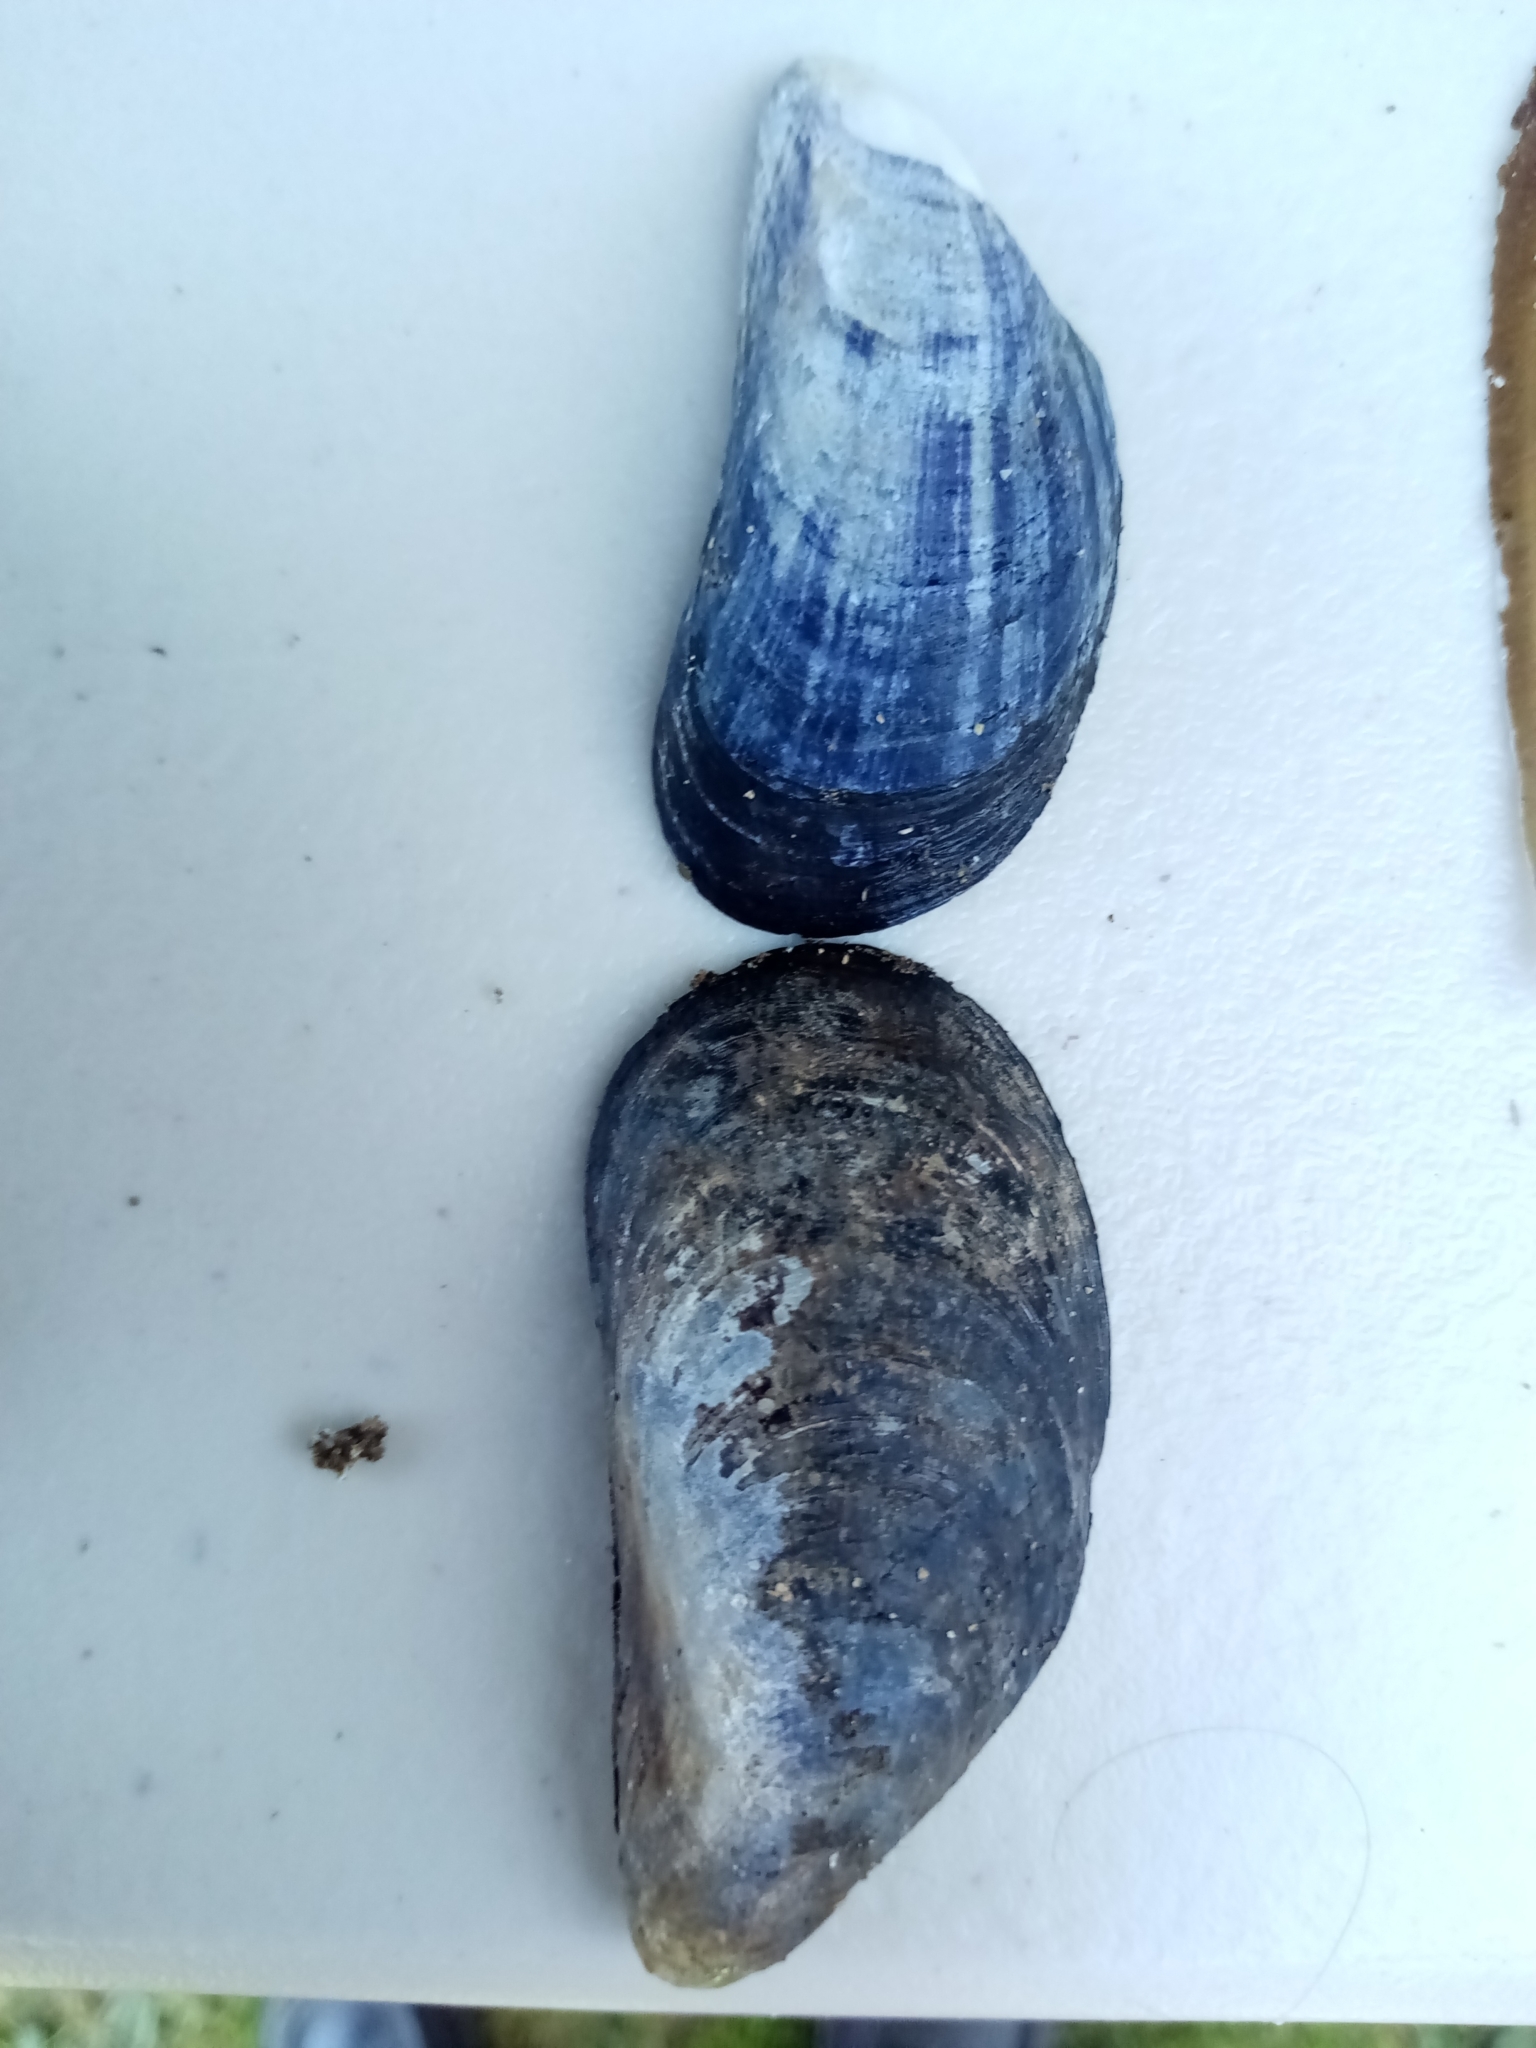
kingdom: Animalia
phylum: Mollusca
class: Bivalvia
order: Mytilida
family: Mytilidae
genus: Mytilus
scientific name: Mytilus edulis
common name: Blue mussel
